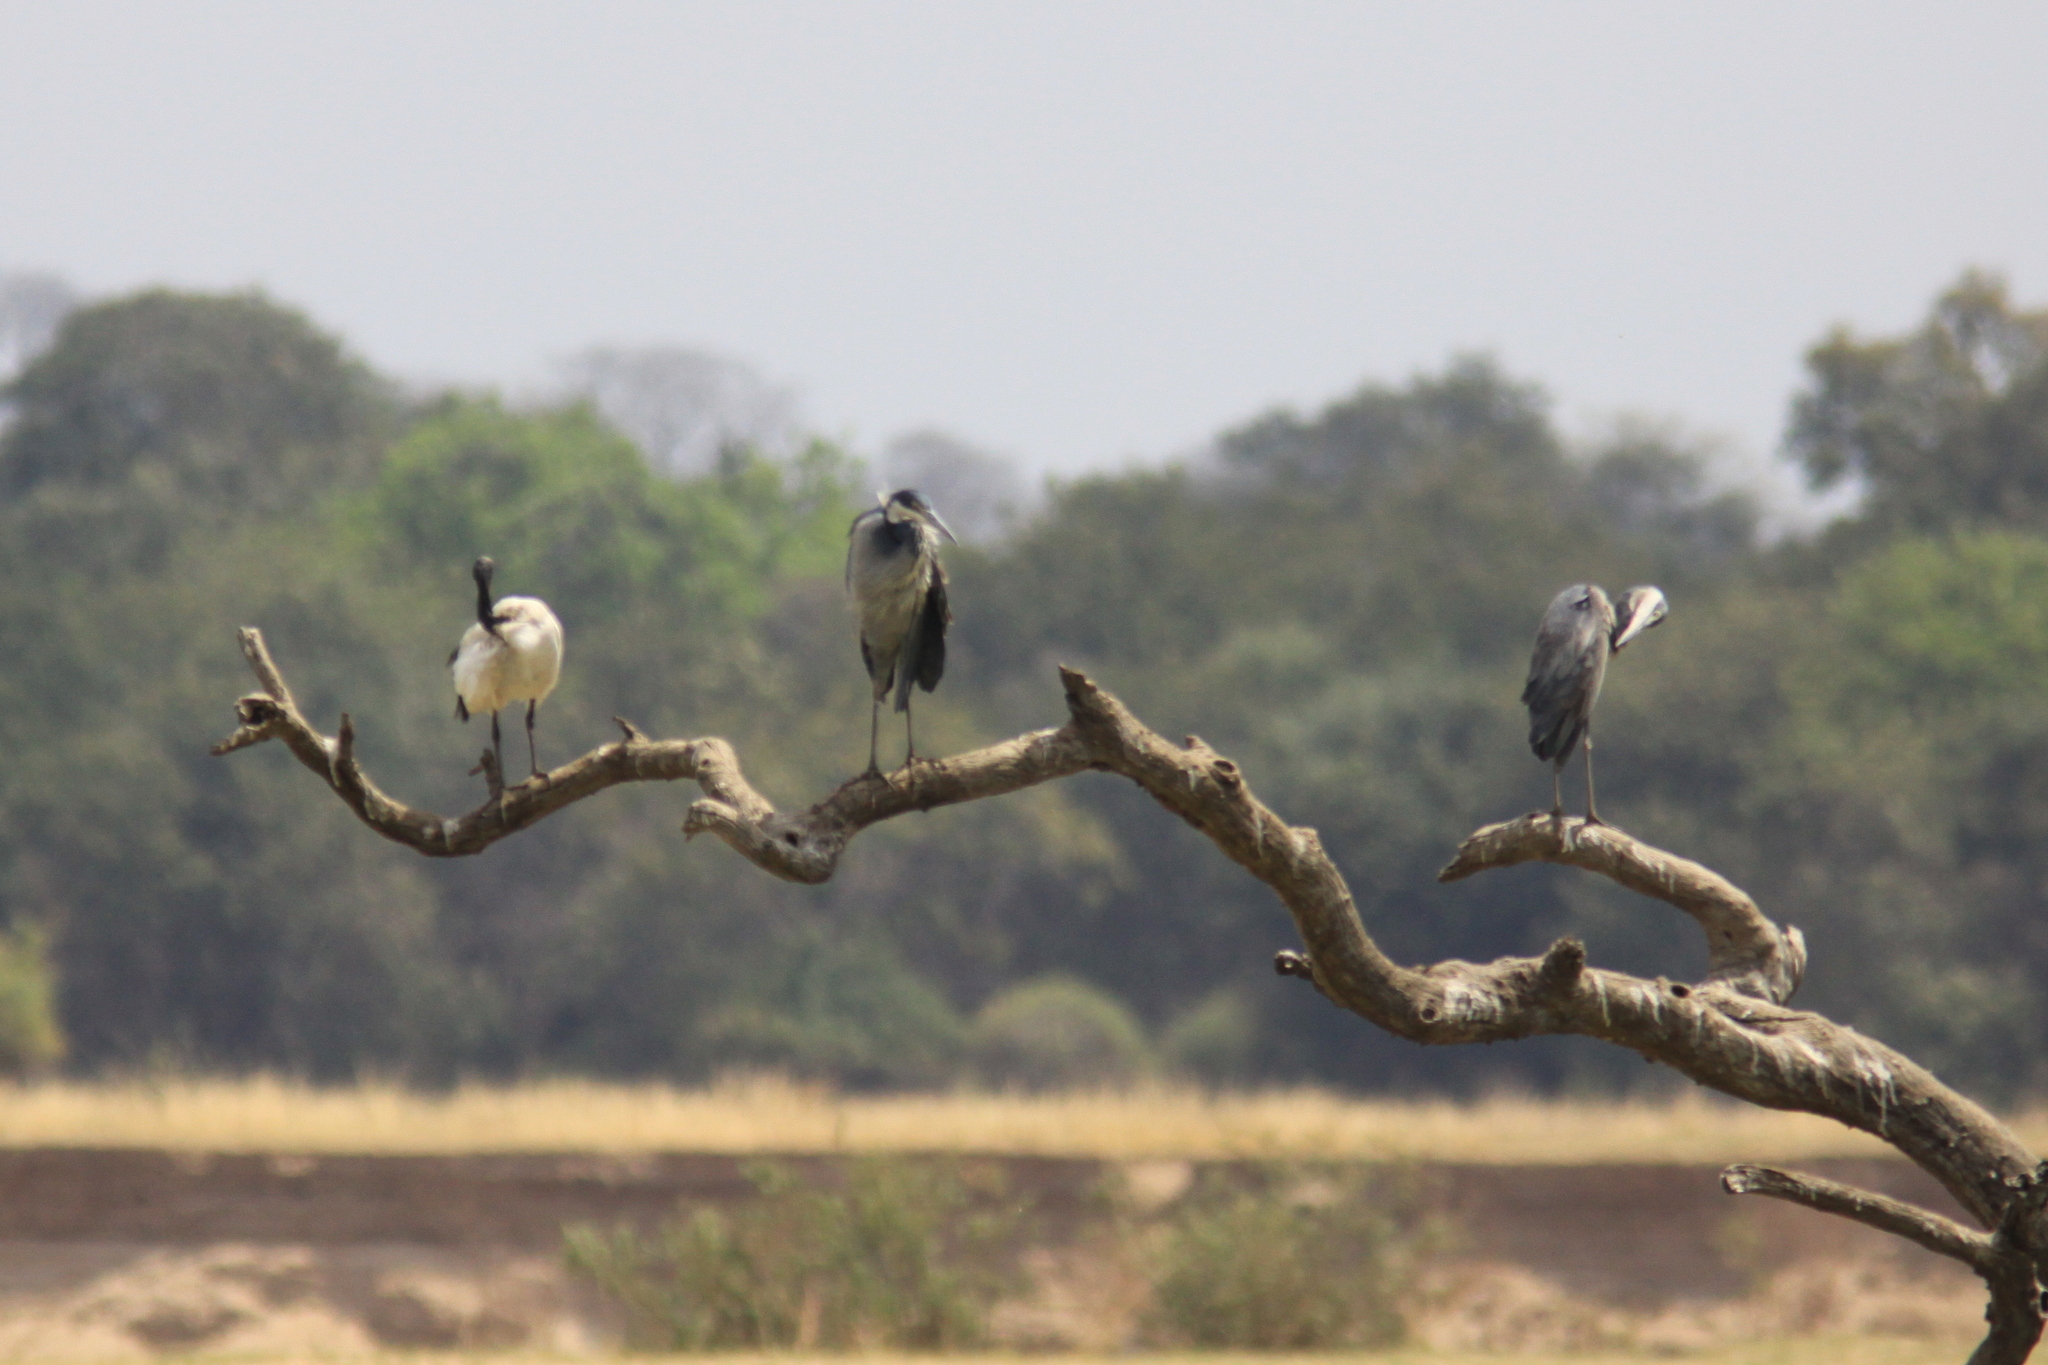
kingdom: Animalia
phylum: Chordata
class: Aves
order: Pelecaniformes
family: Ardeidae
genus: Ardea
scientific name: Ardea melanocephala
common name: Black-headed heron
